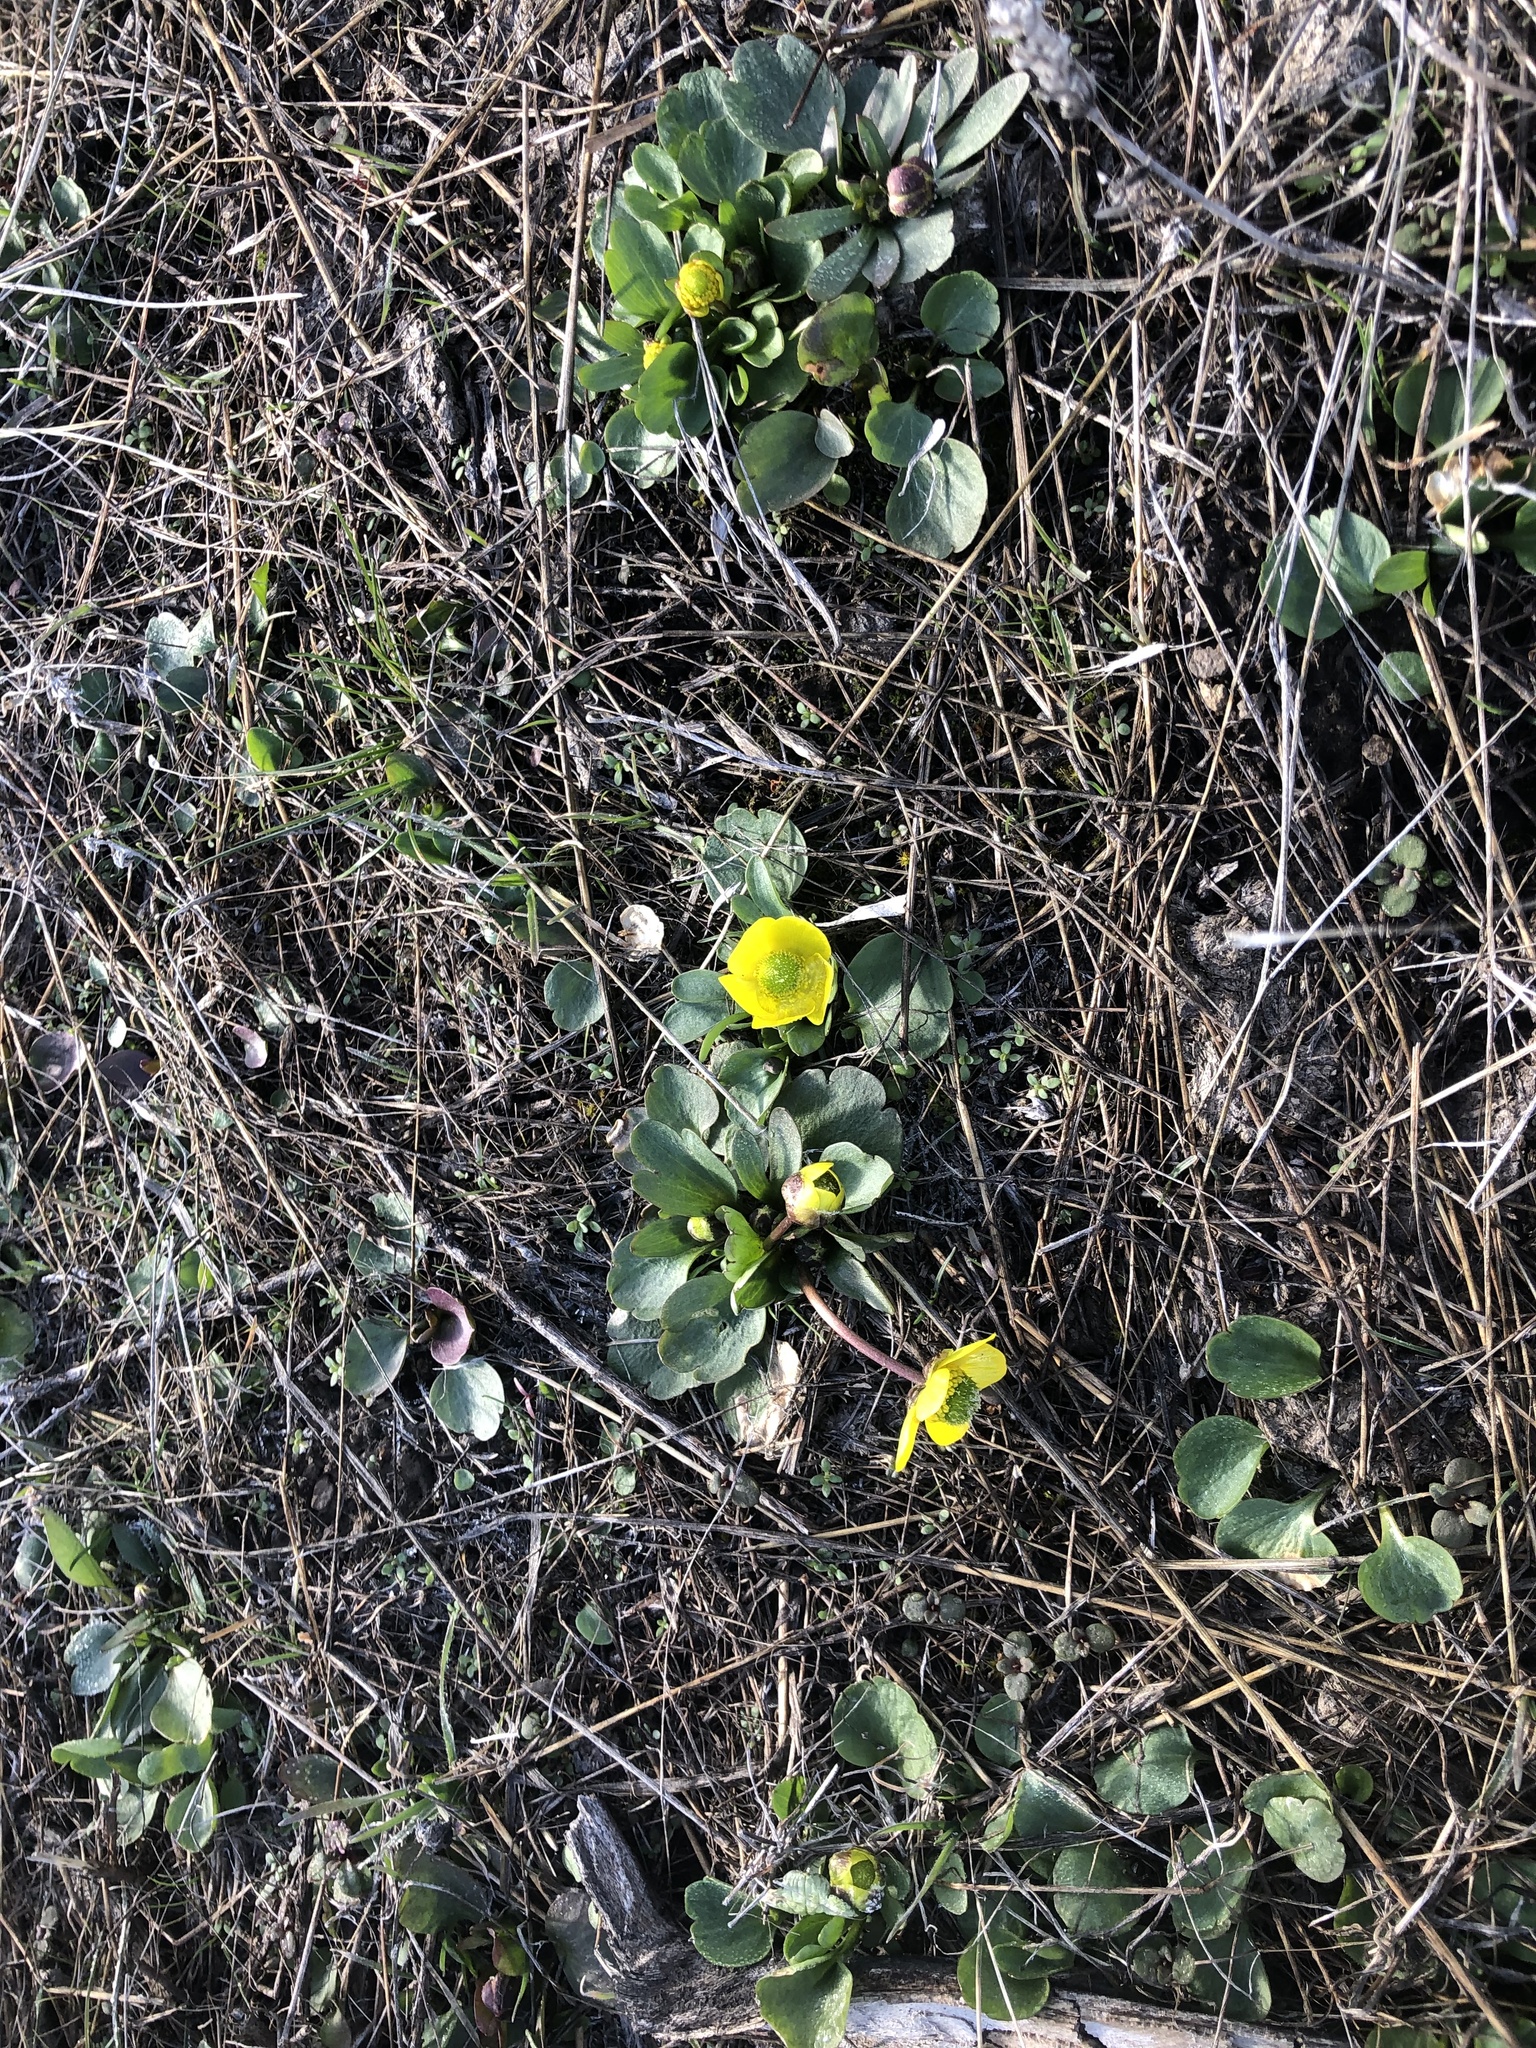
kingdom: Plantae
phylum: Tracheophyta
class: Magnoliopsida
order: Ranunculales
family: Ranunculaceae
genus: Ranunculus
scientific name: Ranunculus glaberrimus
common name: Sagebrush buttercup
